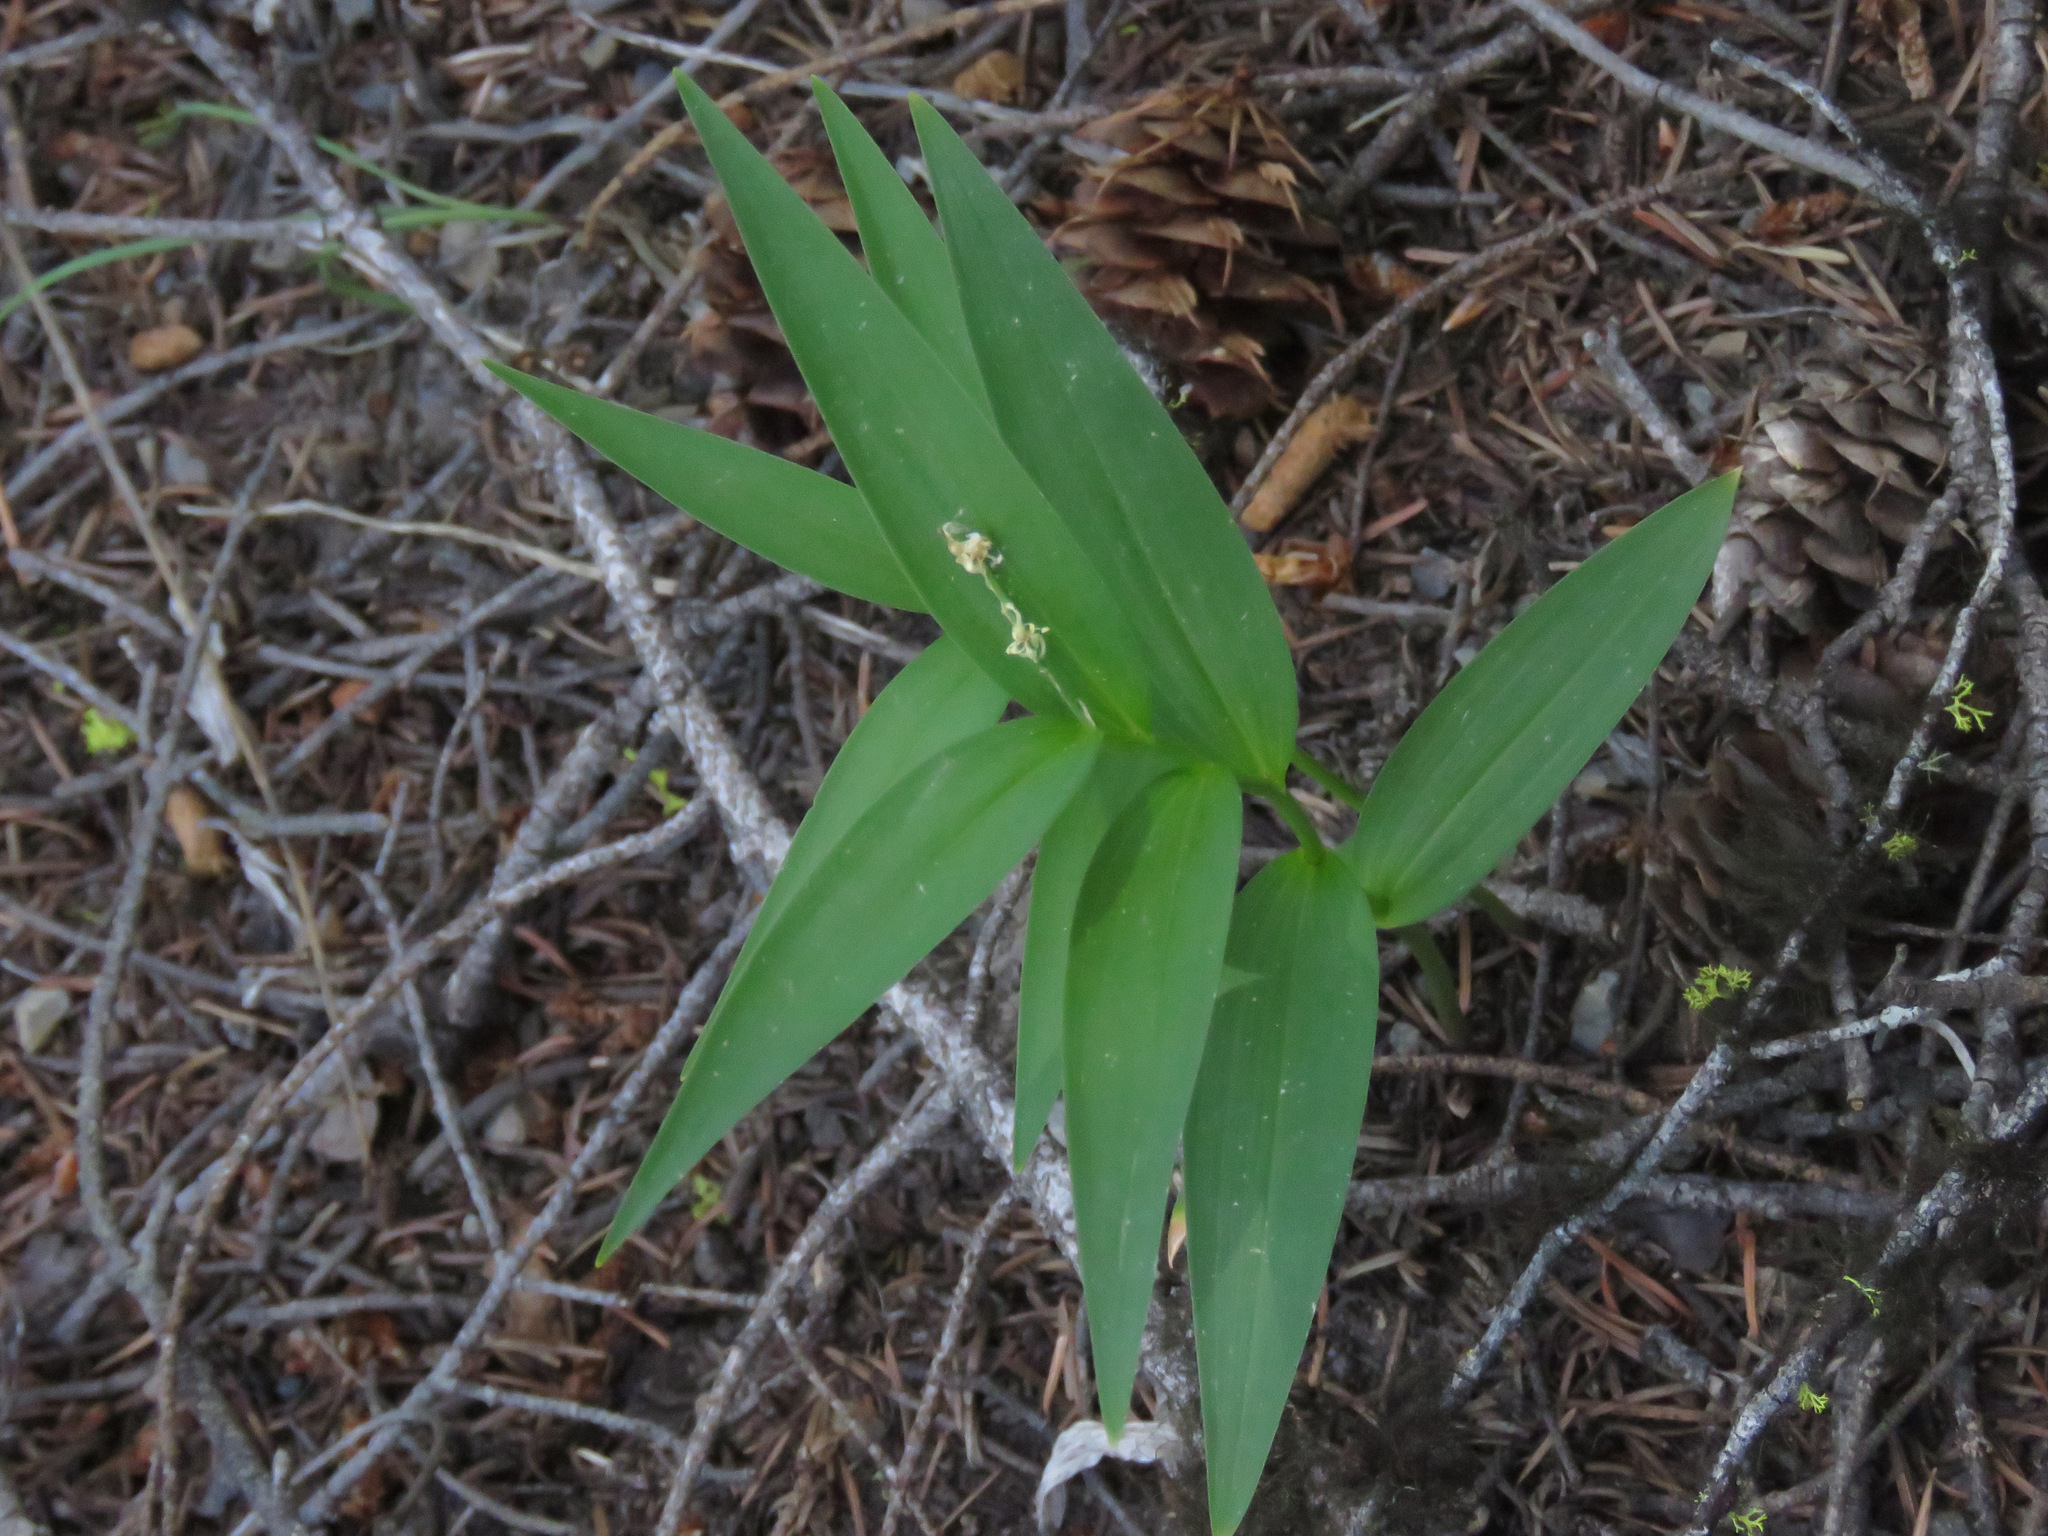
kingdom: Plantae
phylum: Tracheophyta
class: Liliopsida
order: Asparagales
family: Asparagaceae
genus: Maianthemum
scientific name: Maianthemum stellatum
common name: Little false solomon's seal
